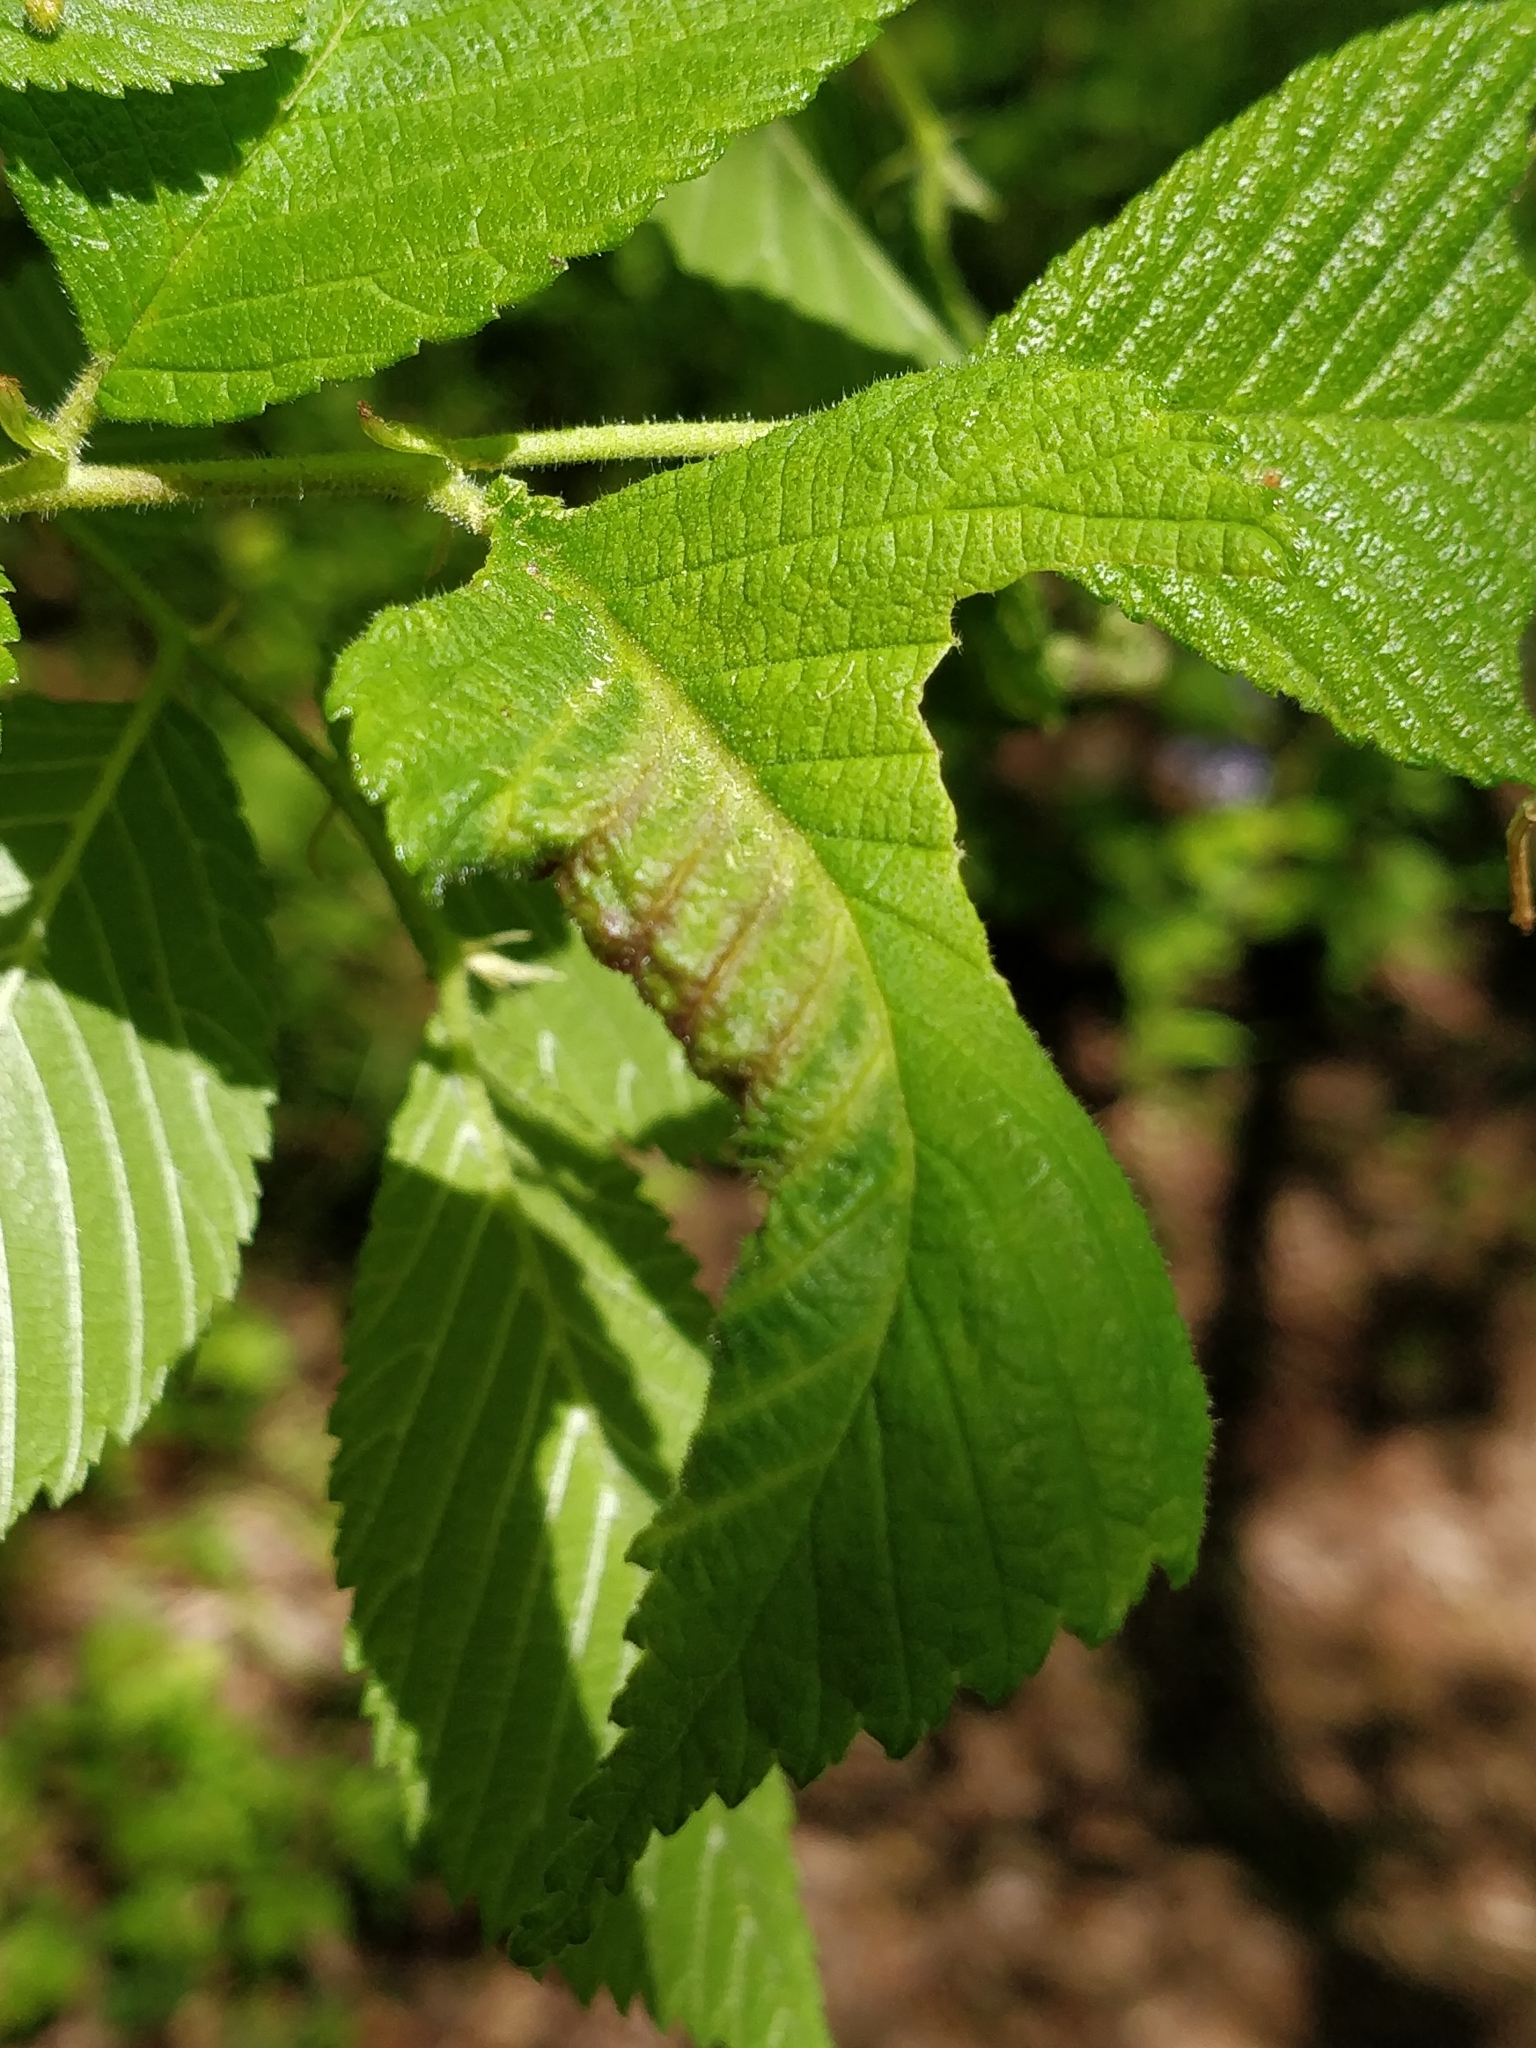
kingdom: Animalia
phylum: Arthropoda
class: Insecta
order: Hemiptera
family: Aphididae
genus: Eriosoma
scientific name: Eriosoma americanum
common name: Woolly elm aphid
